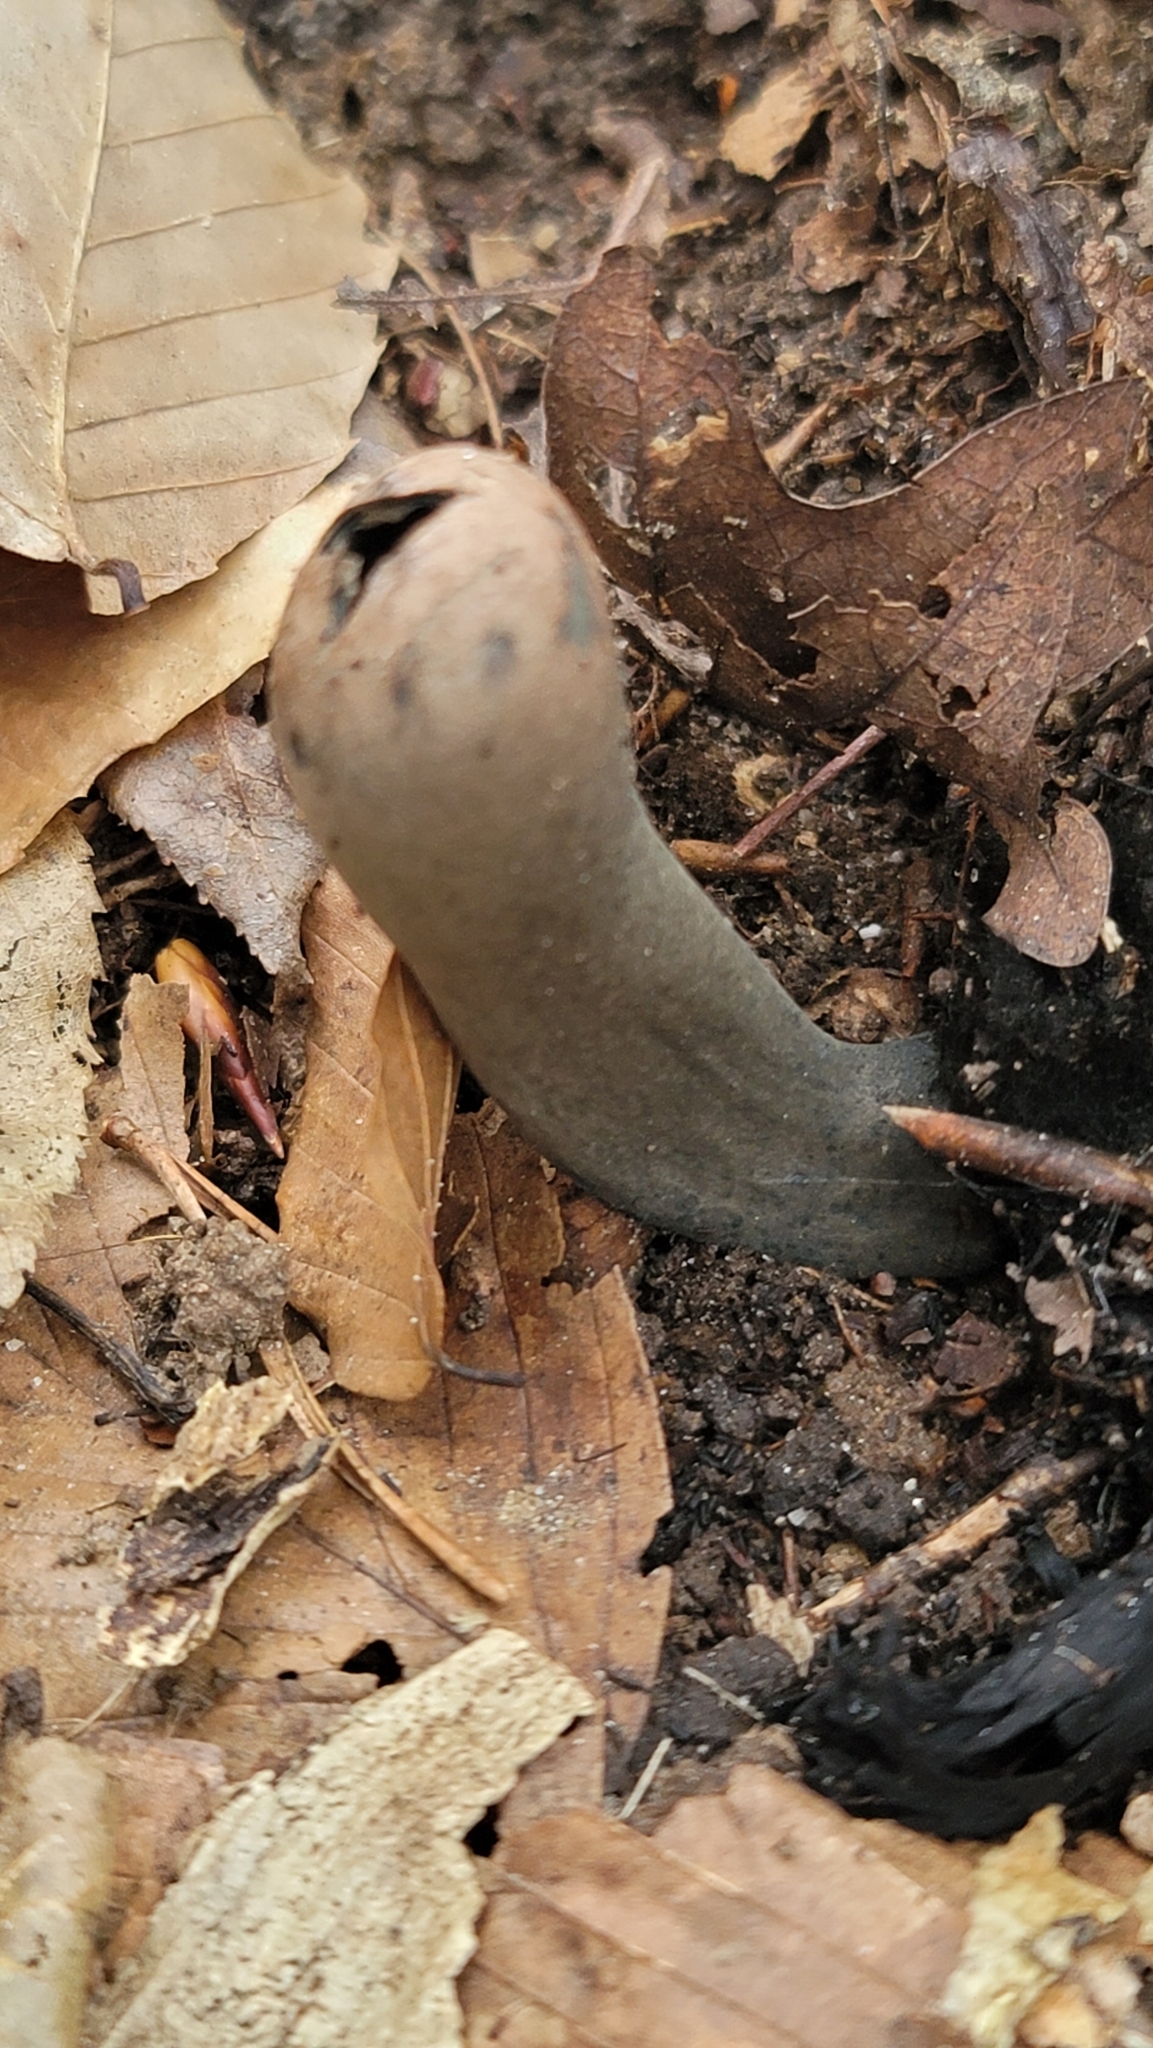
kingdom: Fungi
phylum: Ascomycota
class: Pezizomycetes
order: Pezizales
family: Sarcosomataceae
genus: Urnula
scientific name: Urnula craterium
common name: Devil's urn
